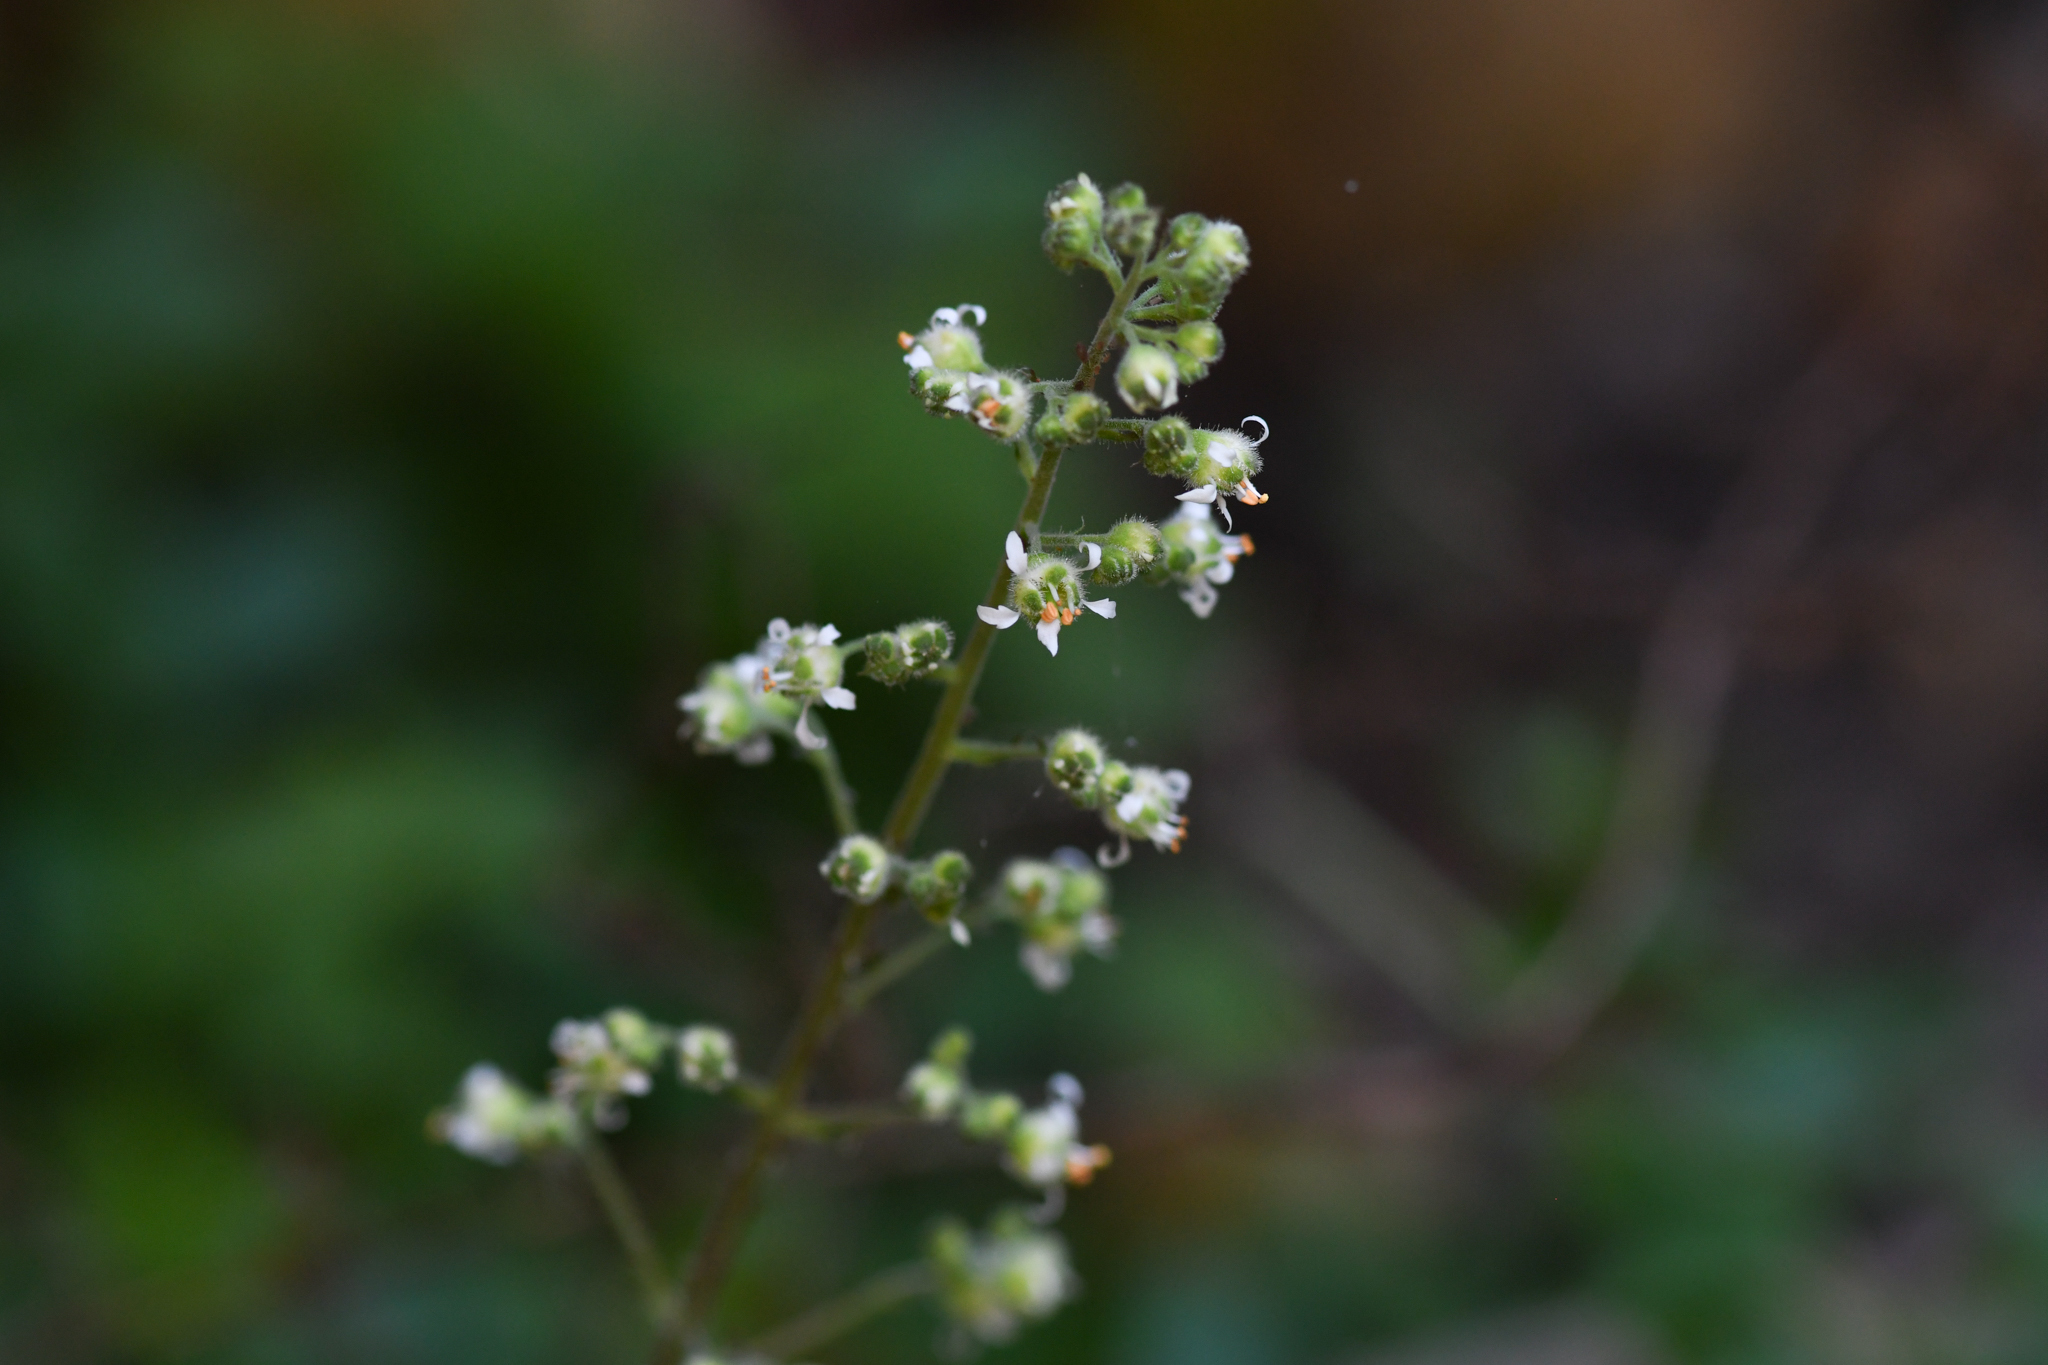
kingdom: Plantae
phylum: Tracheophyta
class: Magnoliopsida
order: Saxifragales
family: Saxifragaceae
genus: Heuchera
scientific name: Heuchera maxima
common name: Island alumroot
